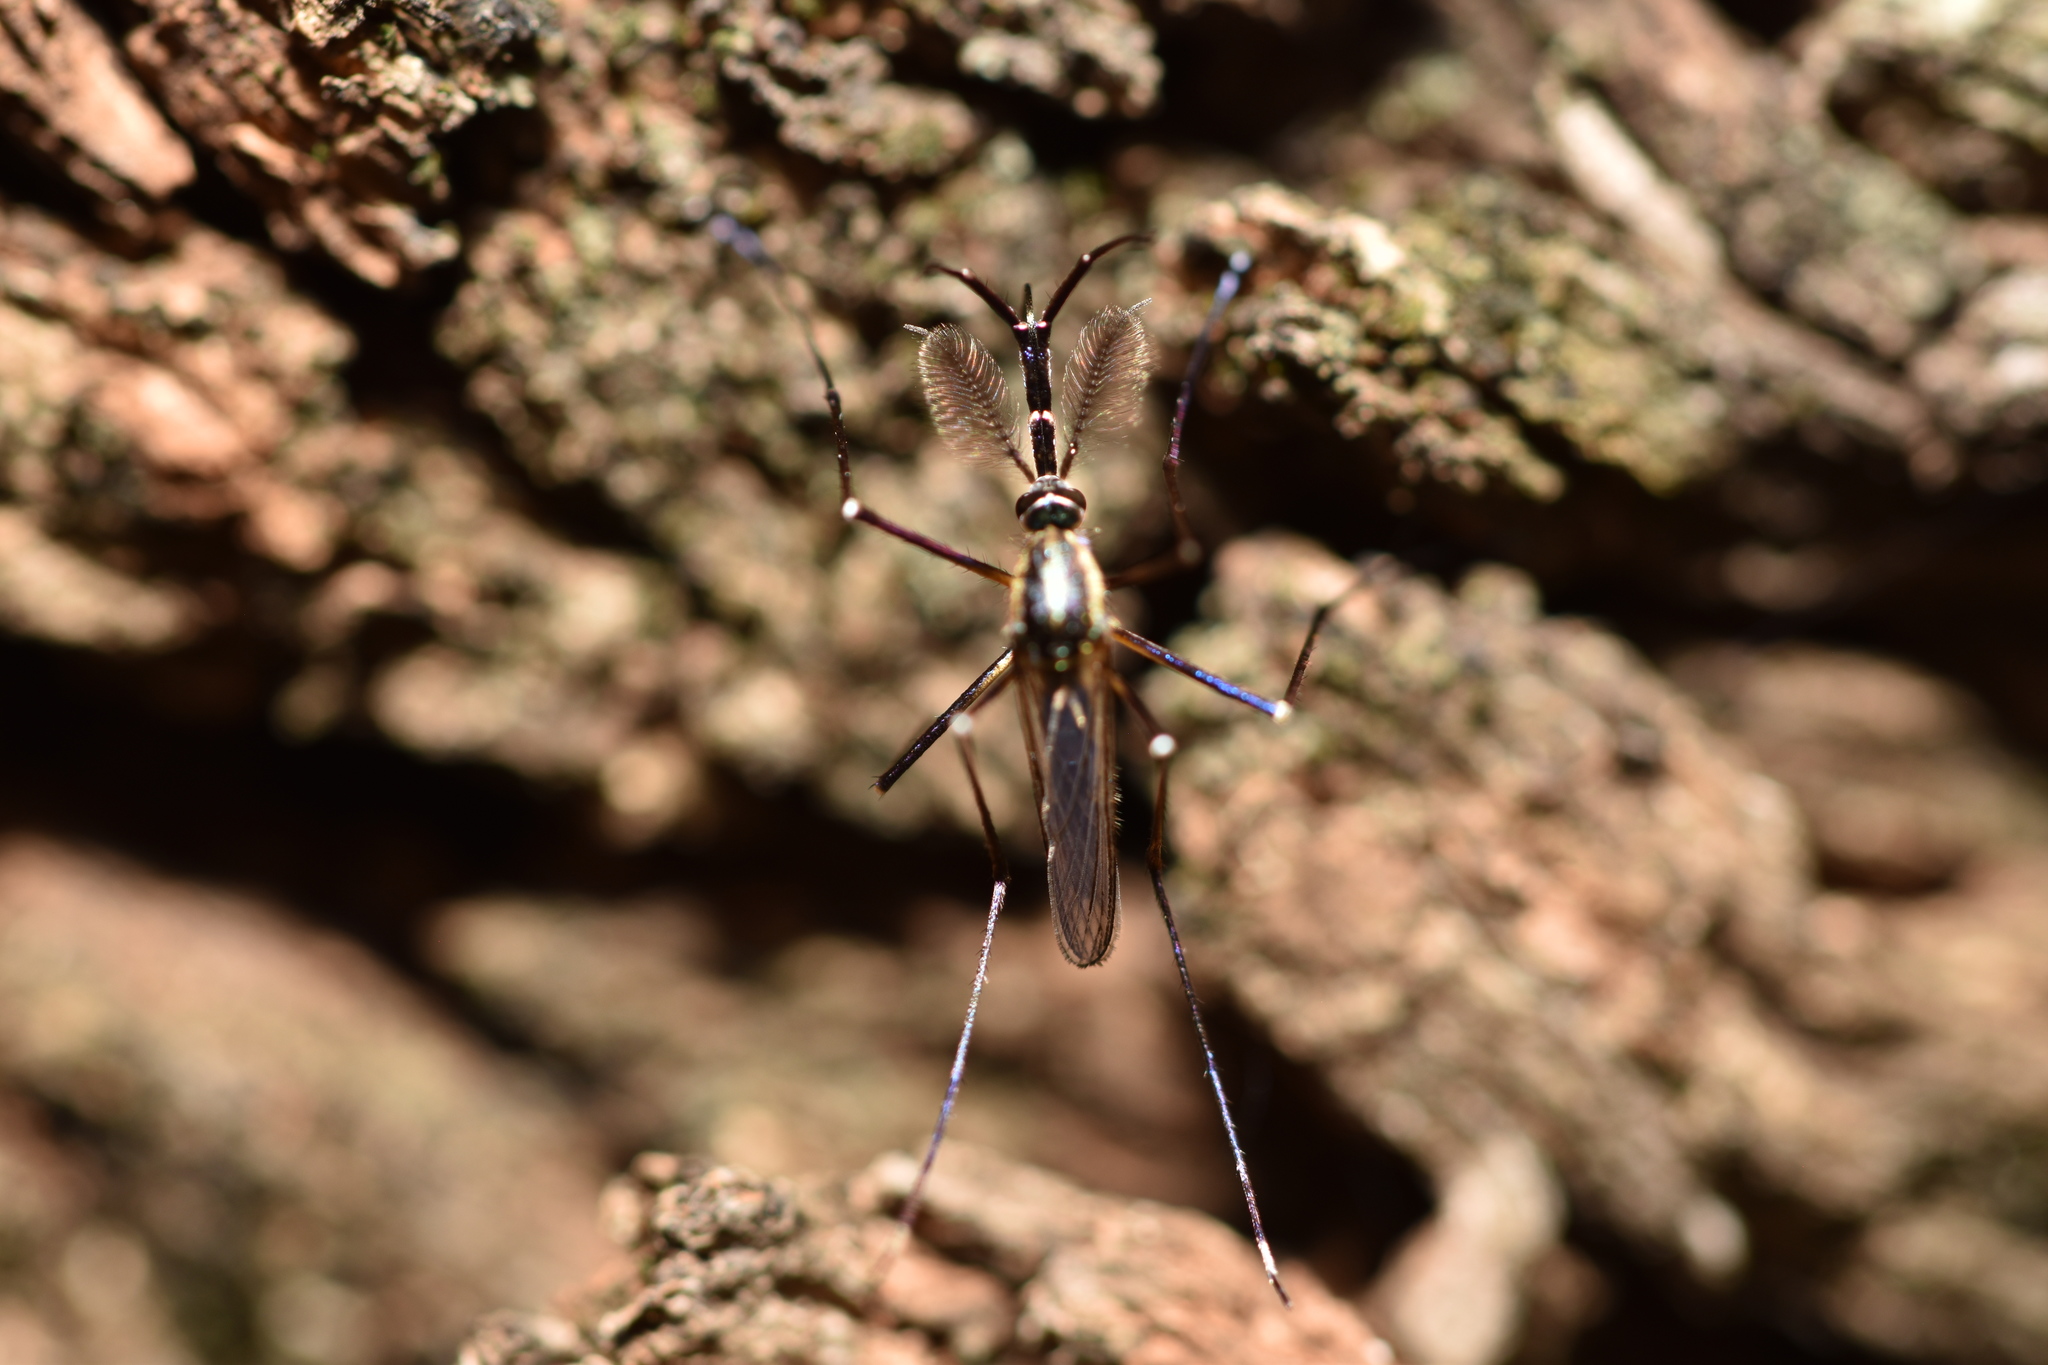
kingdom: Animalia
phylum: Arthropoda
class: Insecta
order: Diptera
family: Culicidae
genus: Toxorhynchites
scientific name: Toxorhynchites rutilus
